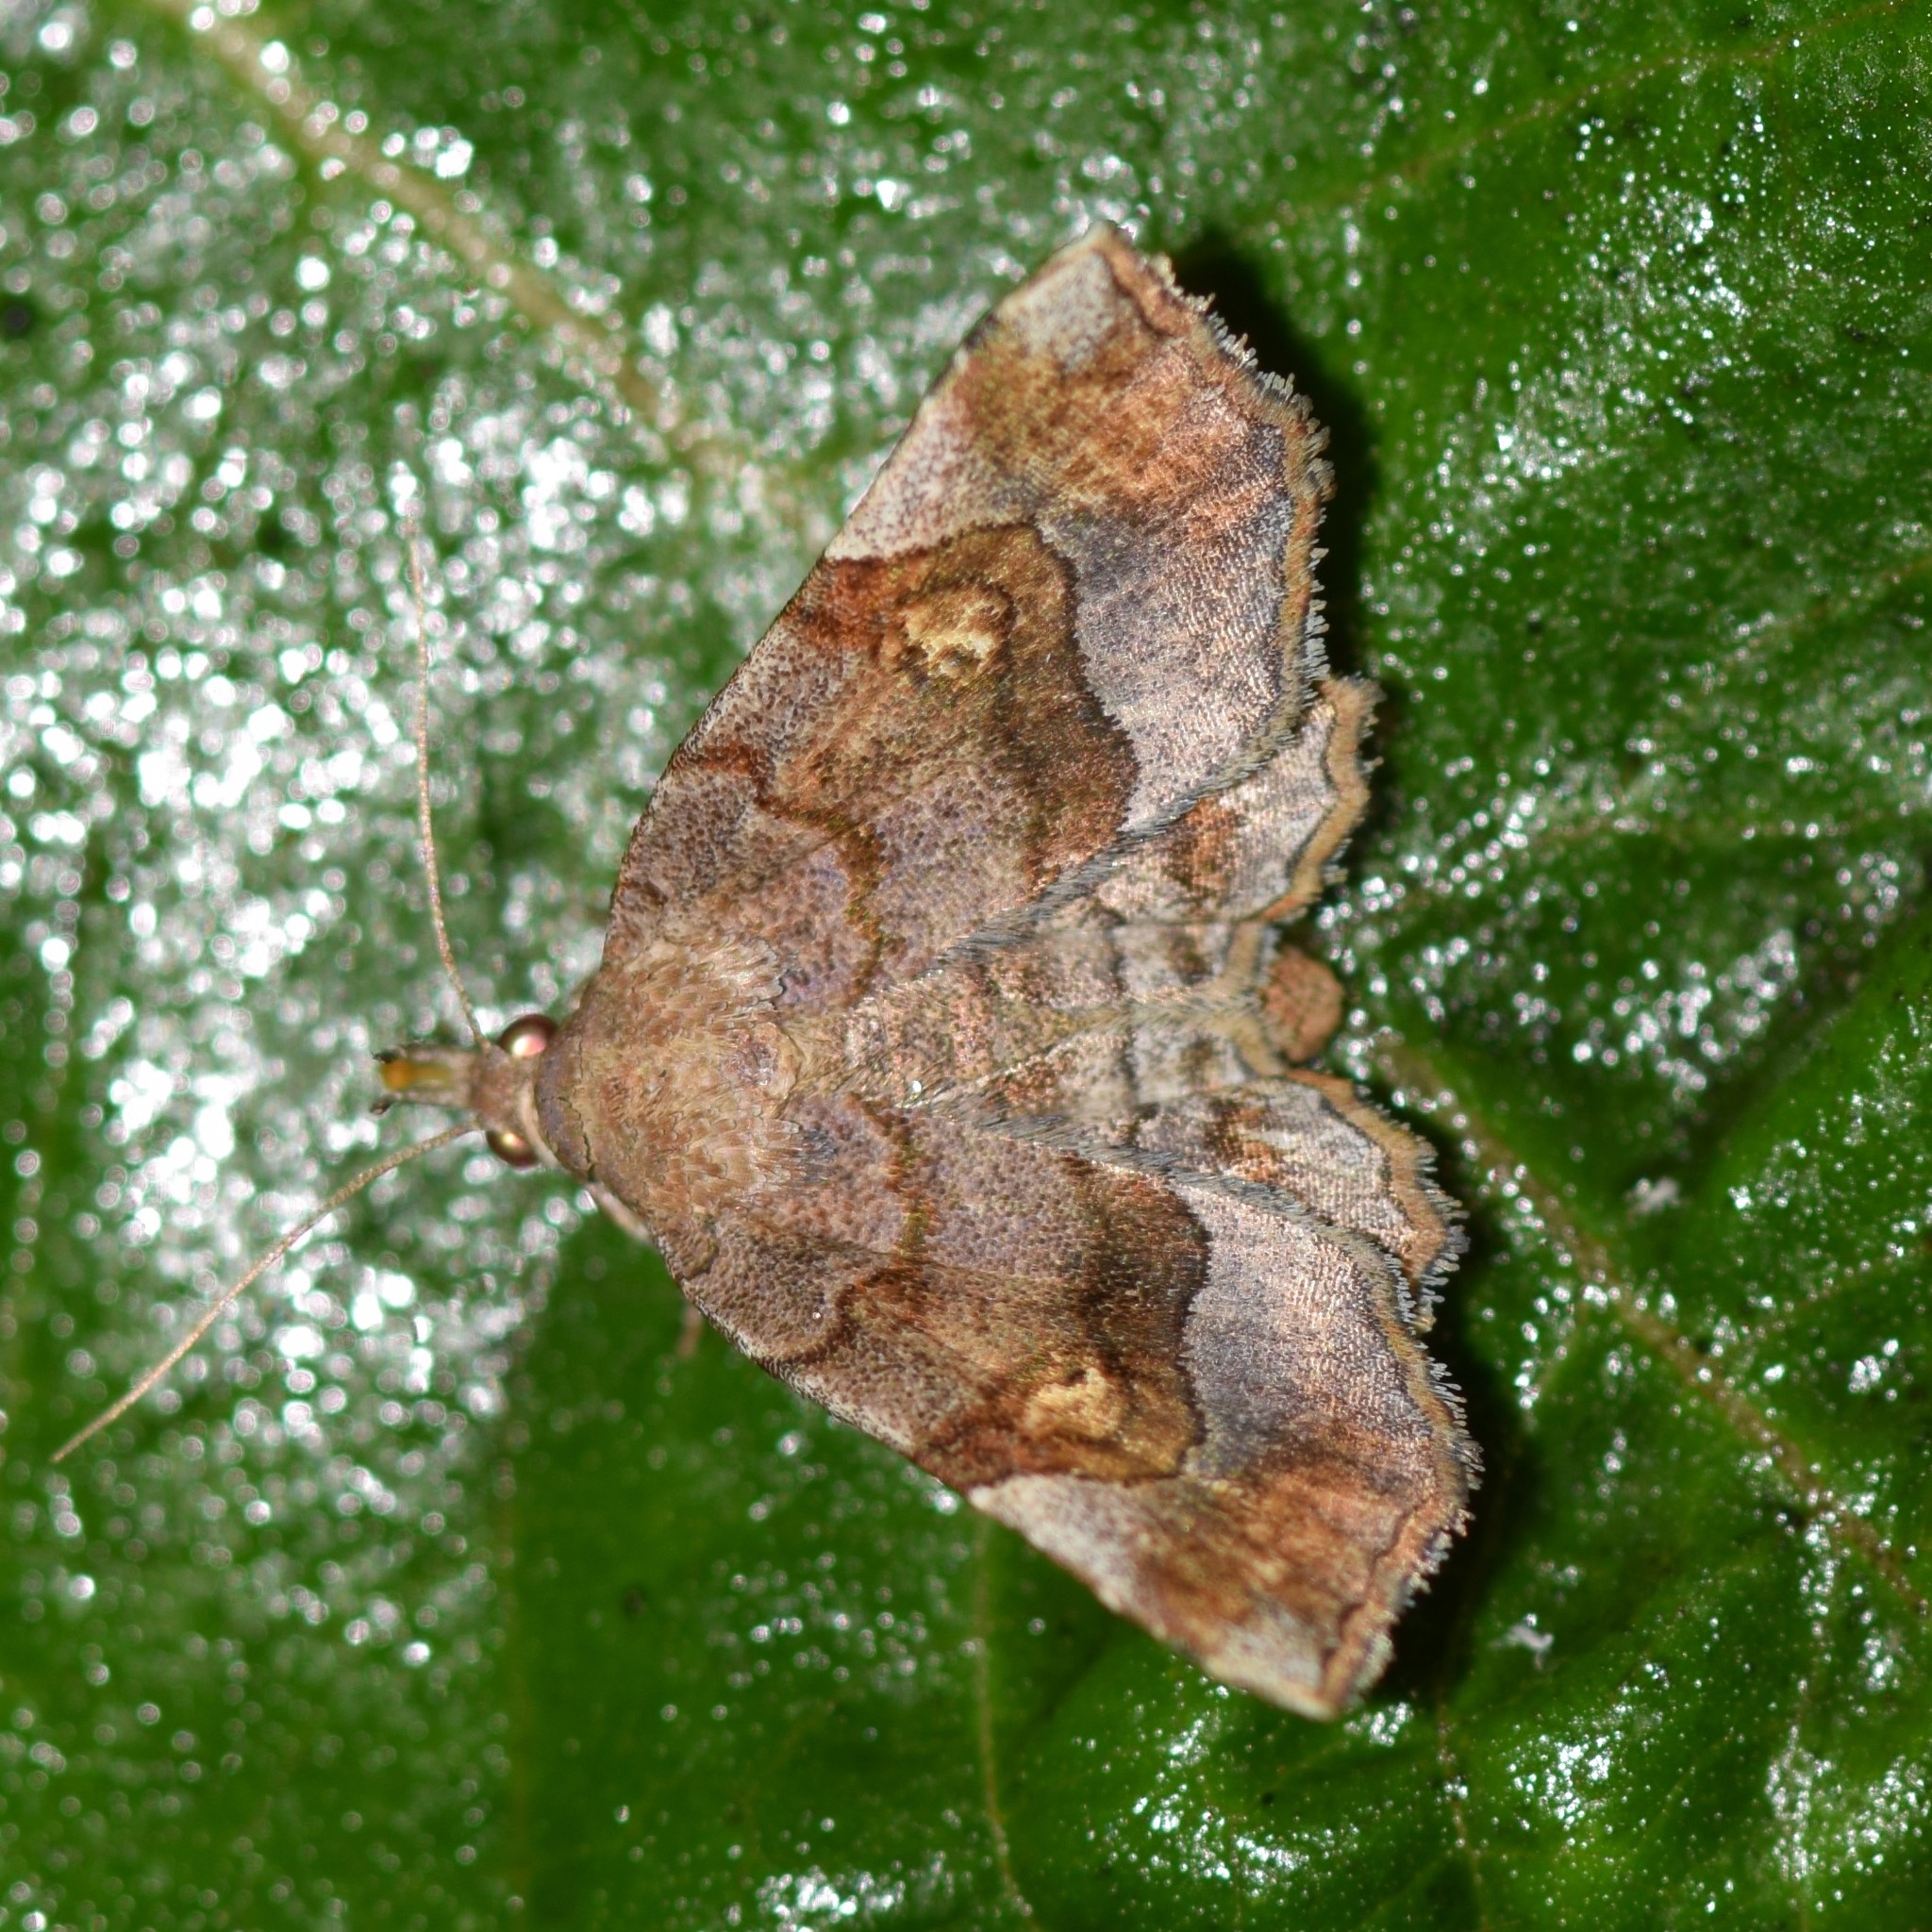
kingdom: Animalia
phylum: Arthropoda
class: Insecta
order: Lepidoptera
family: Erebidae
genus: Pangrapta
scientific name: Pangrapta decoralis
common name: Decorated owlet
